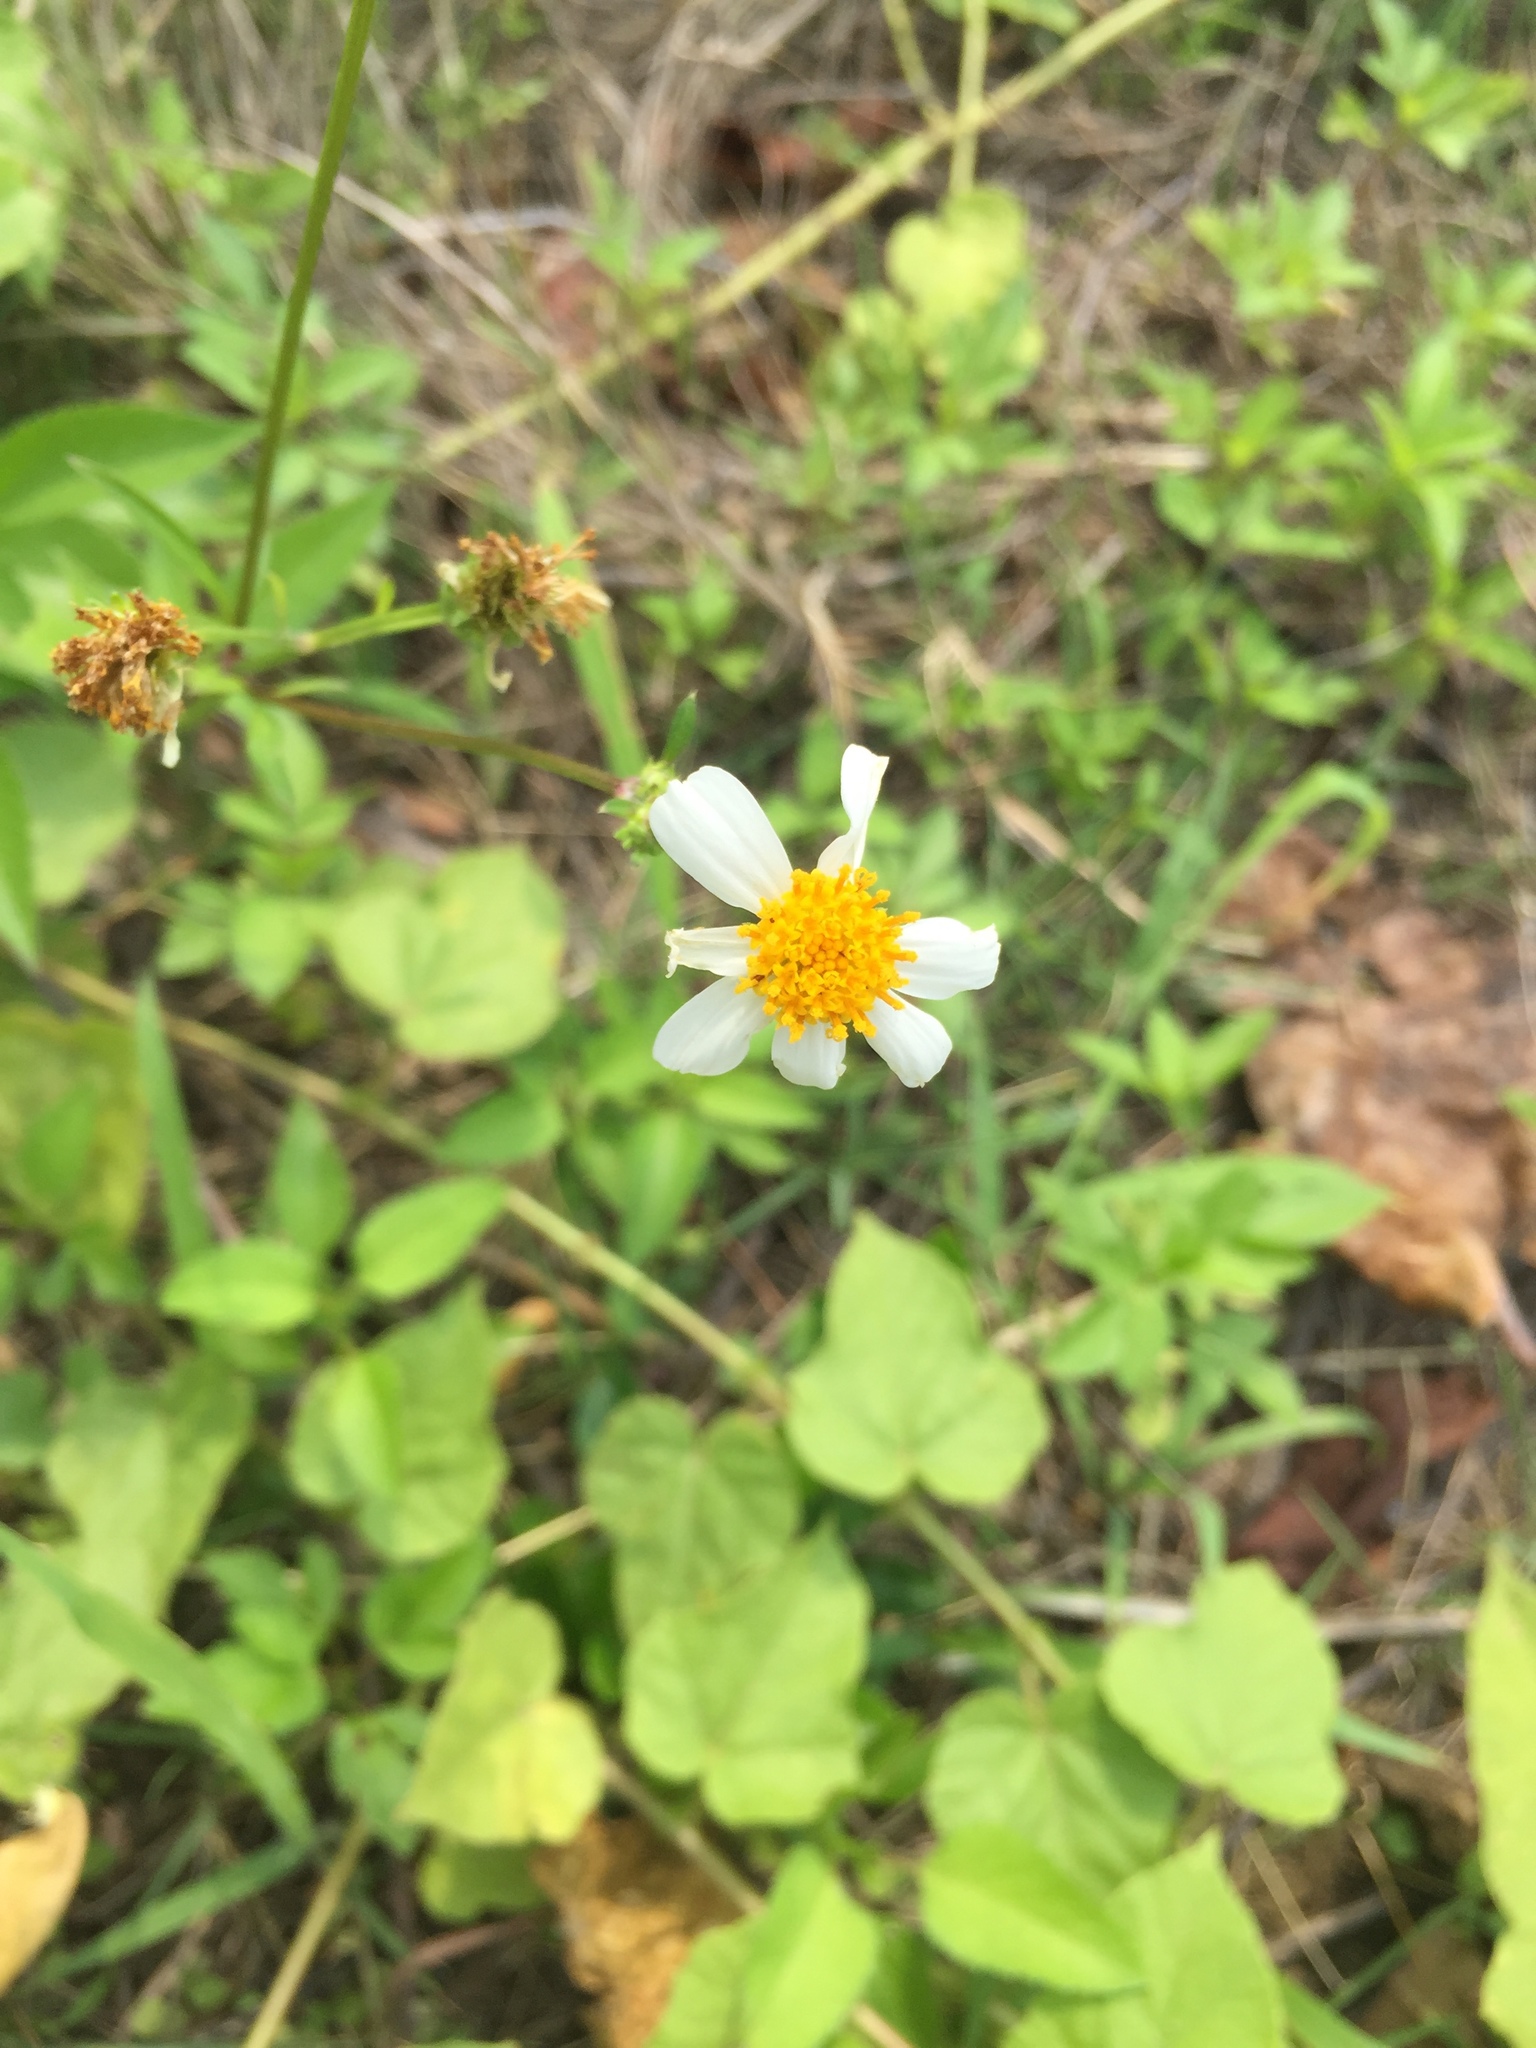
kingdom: Plantae
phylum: Tracheophyta
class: Magnoliopsida
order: Asterales
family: Asteraceae
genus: Bidens
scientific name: Bidens alba
